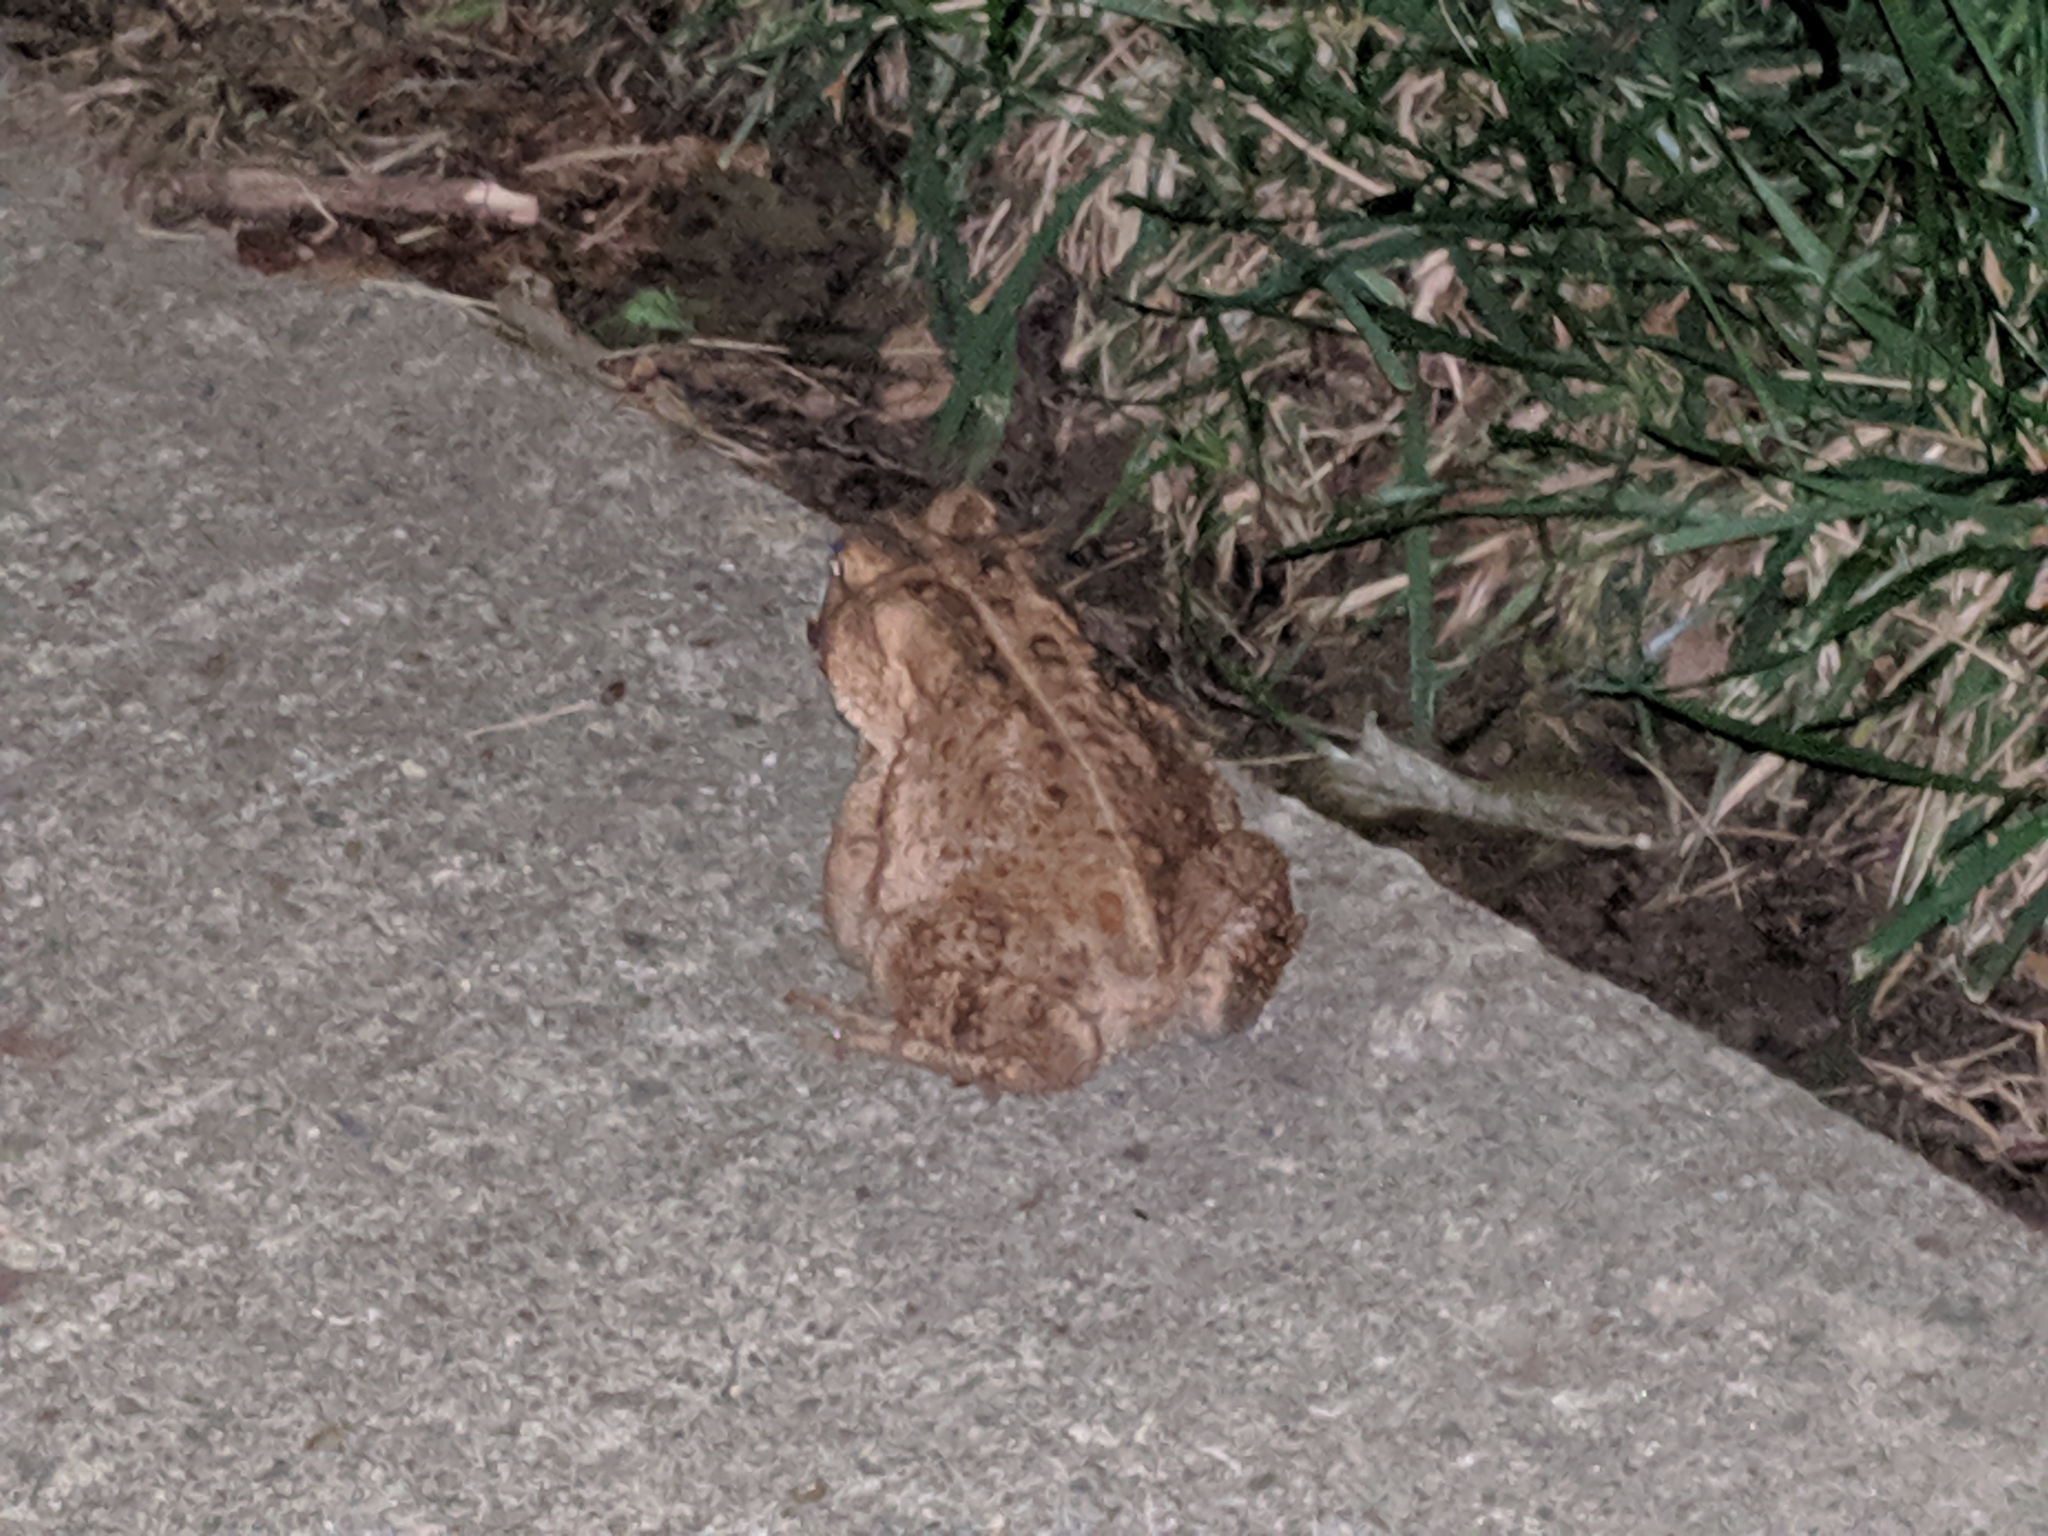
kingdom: Animalia
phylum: Chordata
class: Amphibia
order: Anura
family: Bufonidae
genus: Anaxyrus
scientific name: Anaxyrus americanus
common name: American toad
